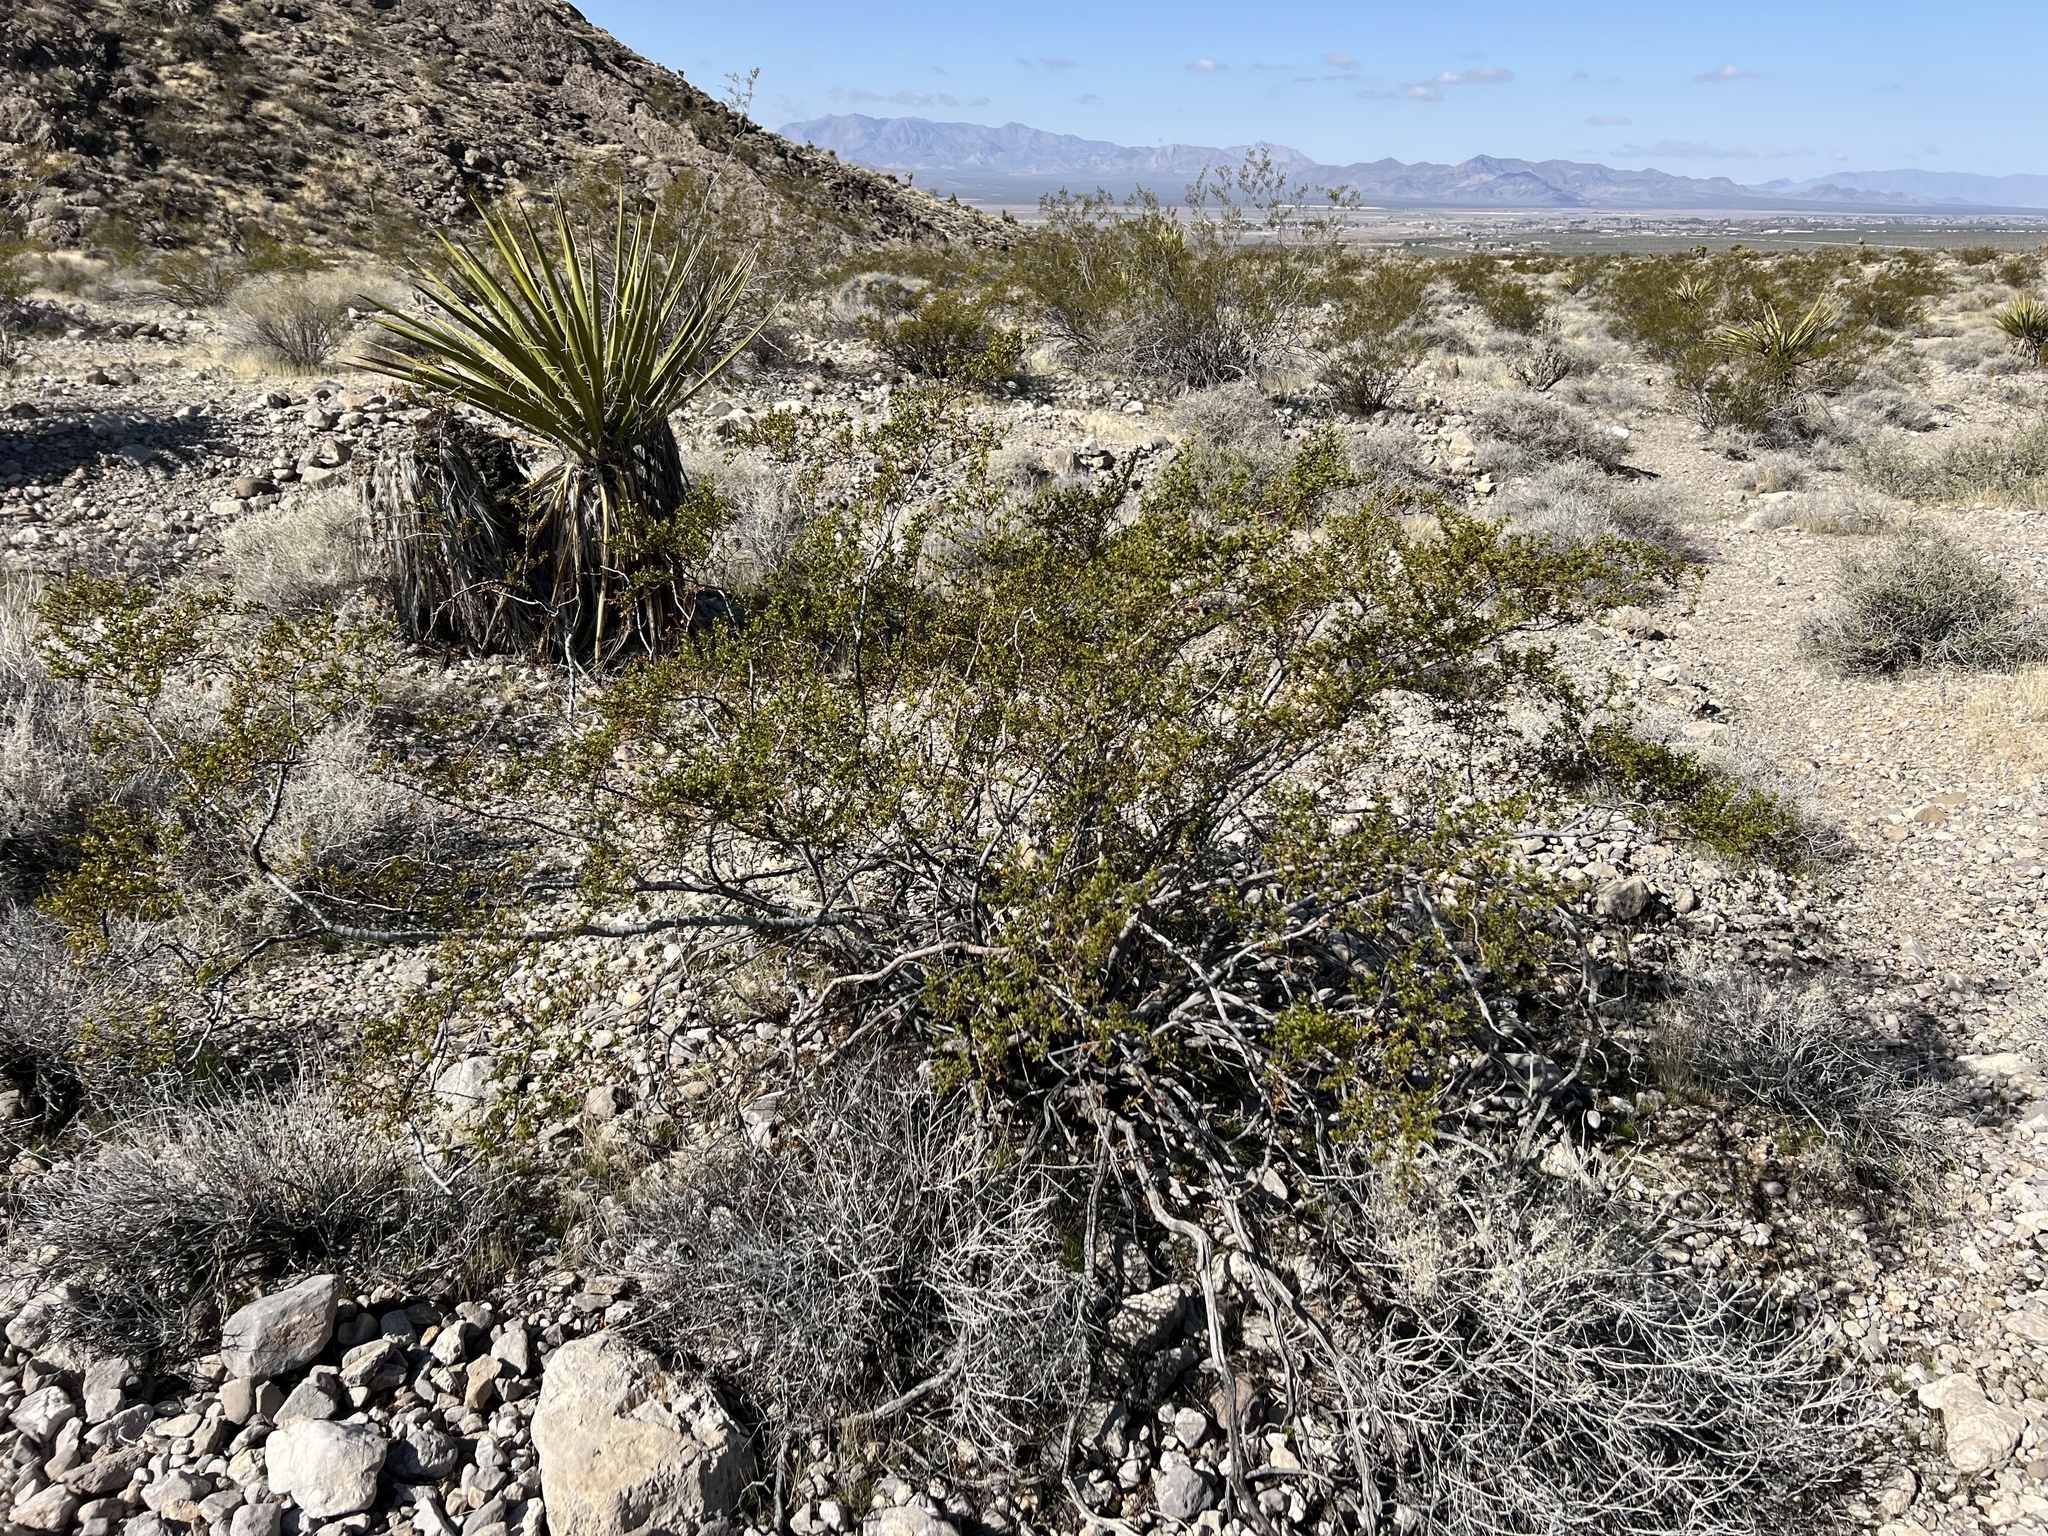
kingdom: Plantae
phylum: Tracheophyta
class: Magnoliopsida
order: Zygophyllales
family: Zygophyllaceae
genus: Larrea
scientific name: Larrea tridentata
